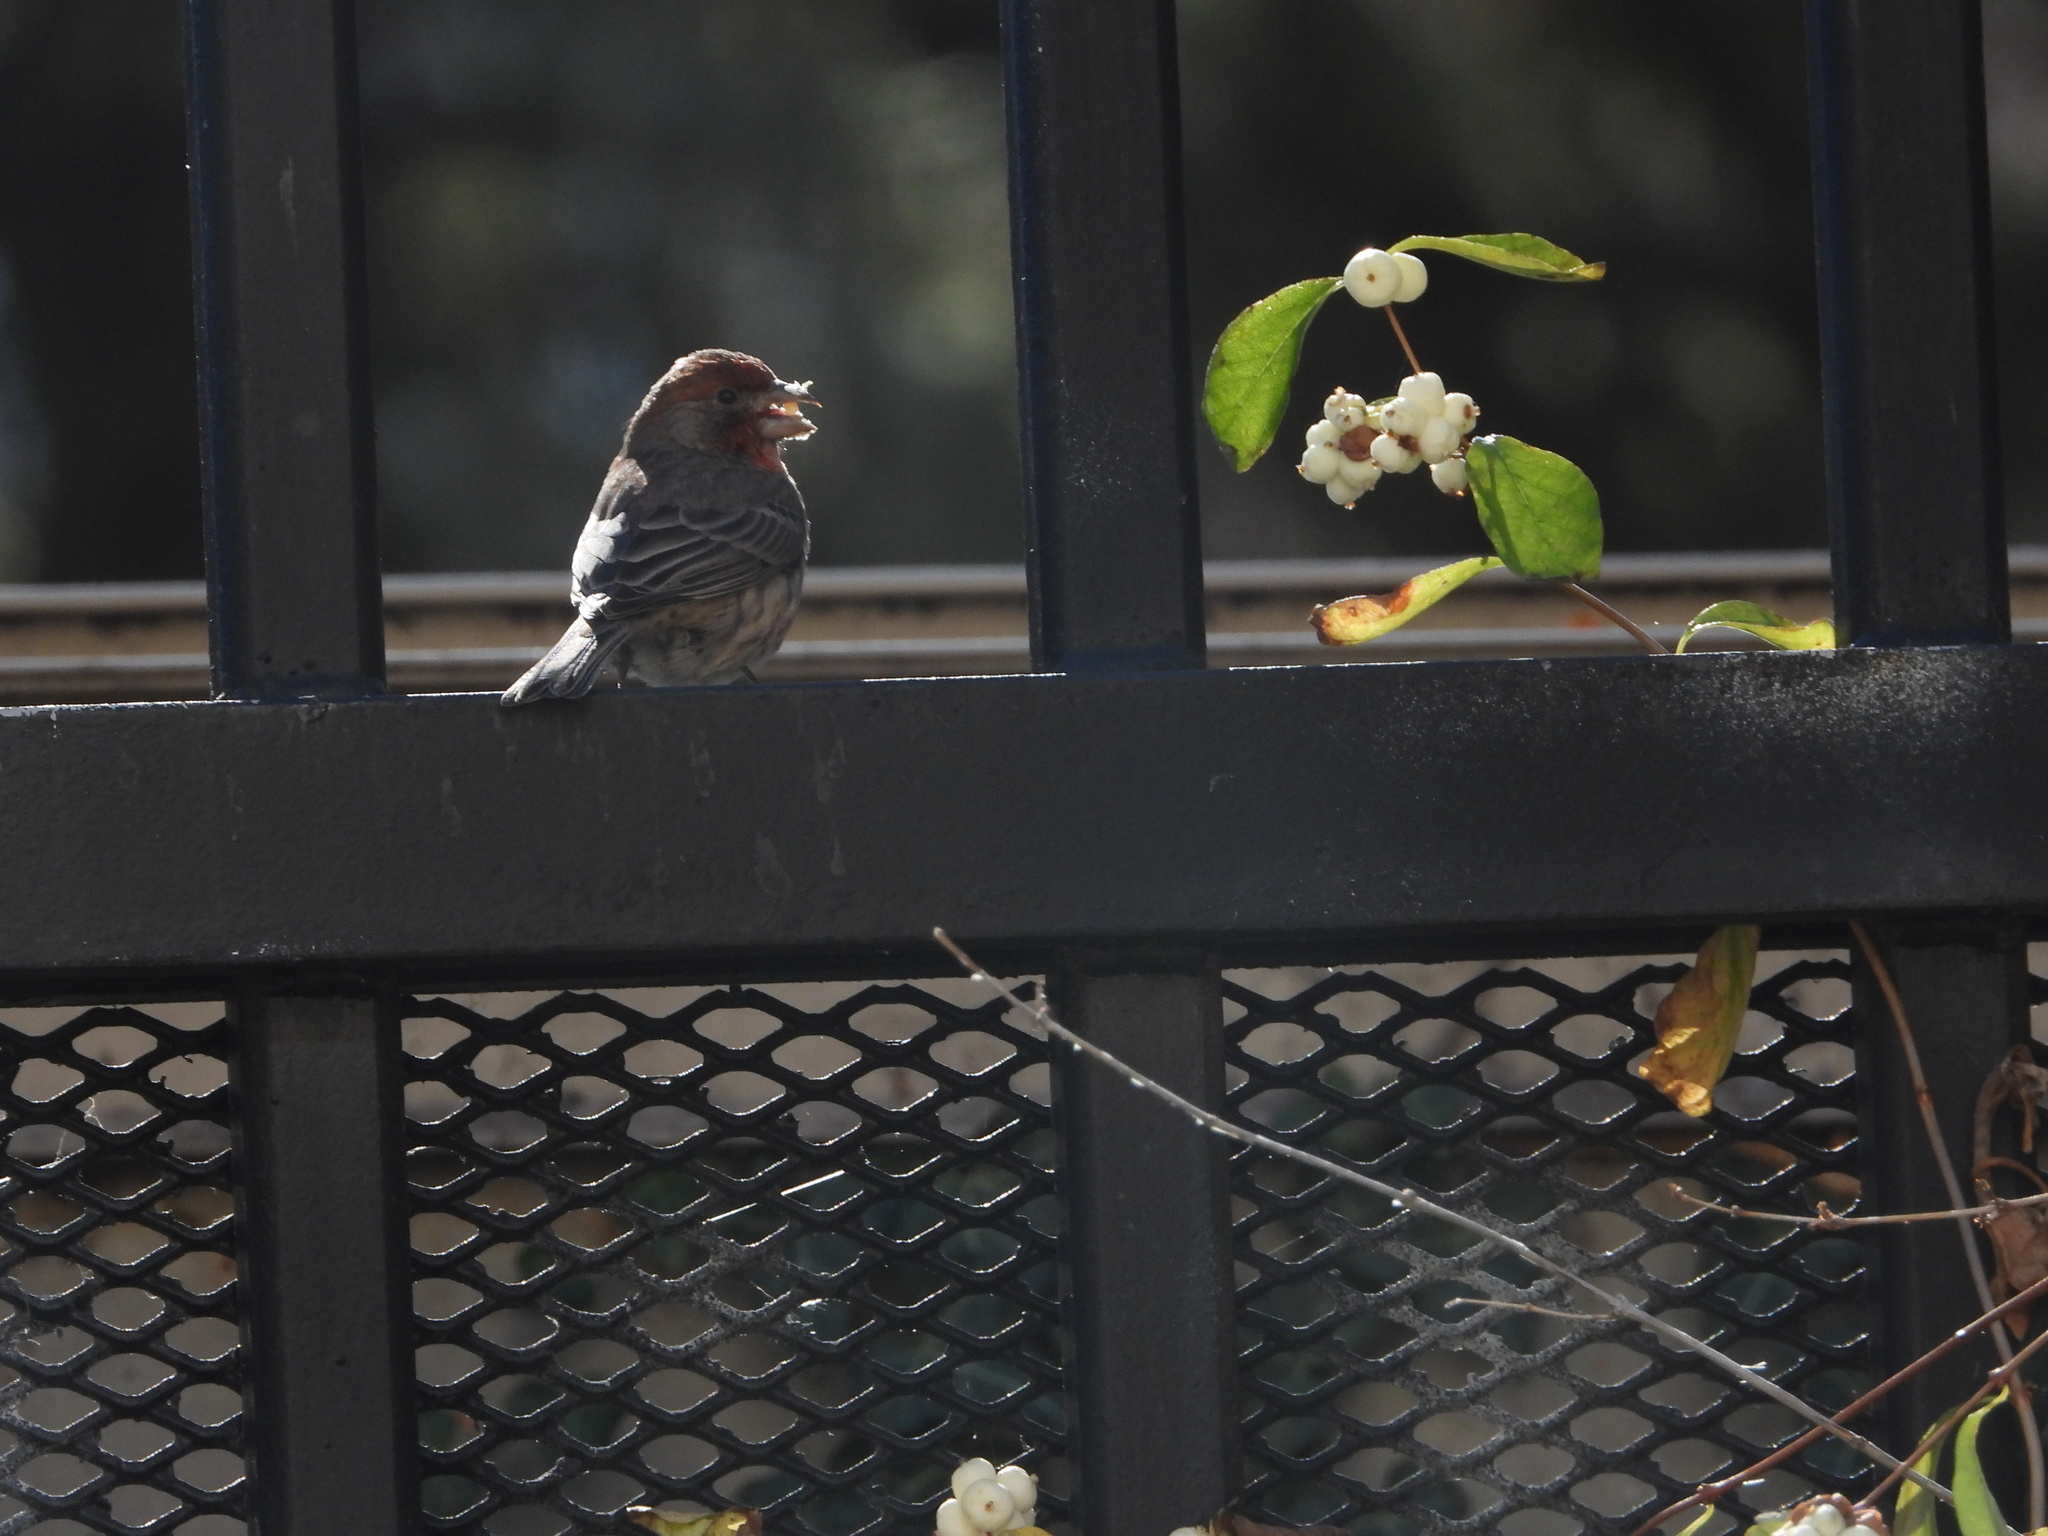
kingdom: Animalia
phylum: Chordata
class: Aves
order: Passeriformes
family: Fringillidae
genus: Haemorhous
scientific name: Haemorhous mexicanus
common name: House finch
